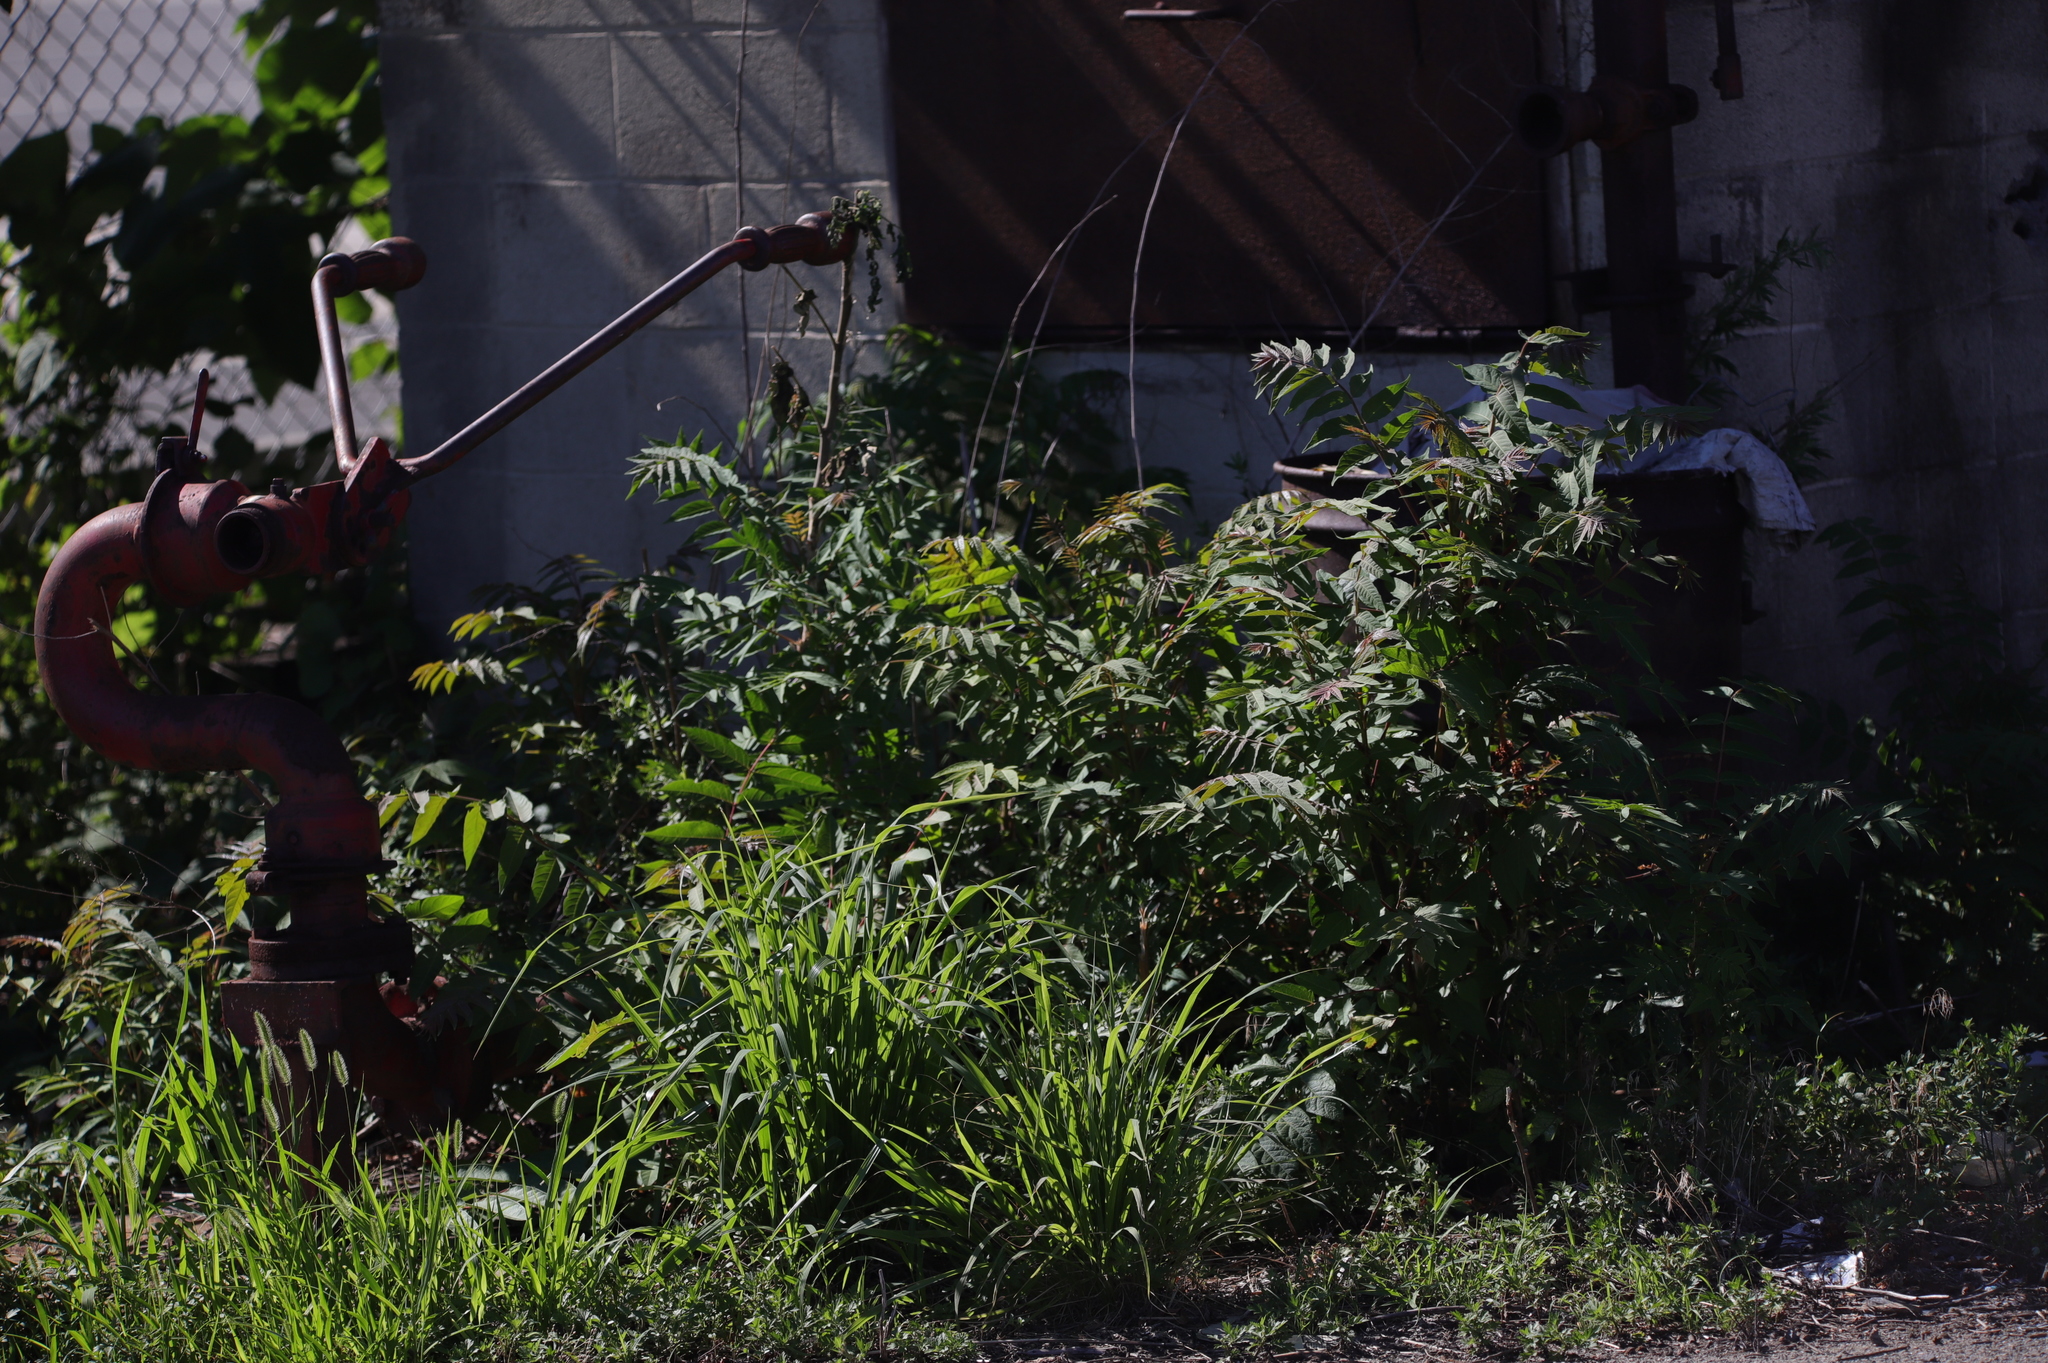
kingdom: Plantae
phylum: Tracheophyta
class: Magnoliopsida
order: Sapindales
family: Simaroubaceae
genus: Ailanthus
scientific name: Ailanthus altissima
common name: Tree-of-heaven
